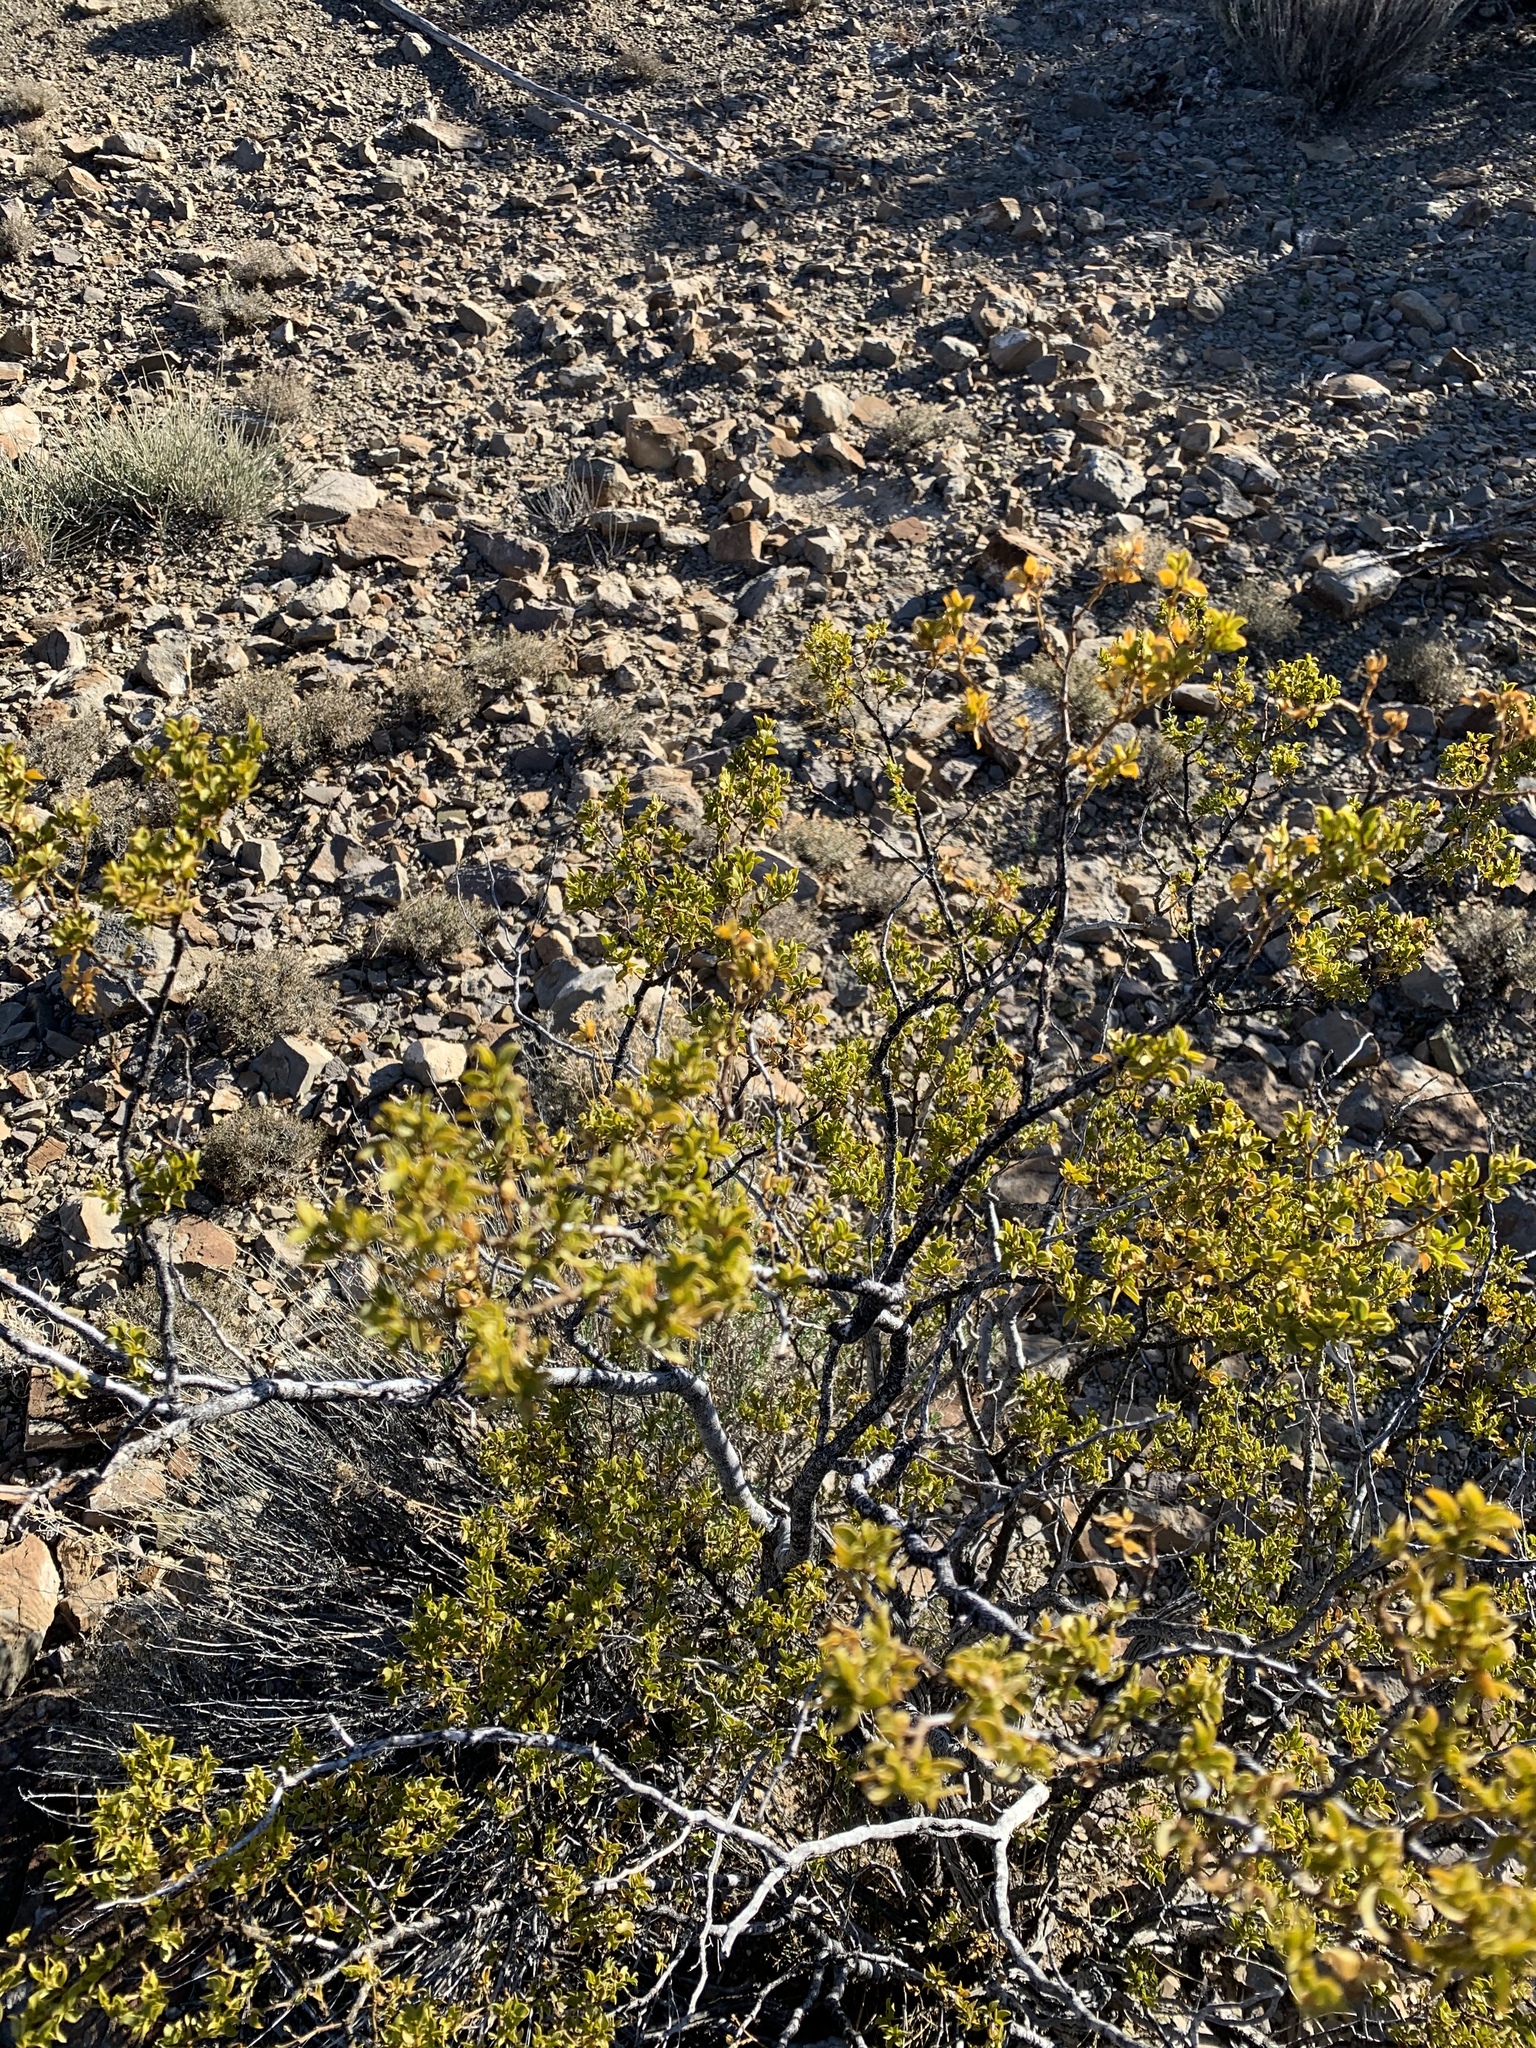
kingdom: Plantae
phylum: Tracheophyta
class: Magnoliopsida
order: Zygophyllales
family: Zygophyllaceae
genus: Larrea
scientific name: Larrea tridentata
